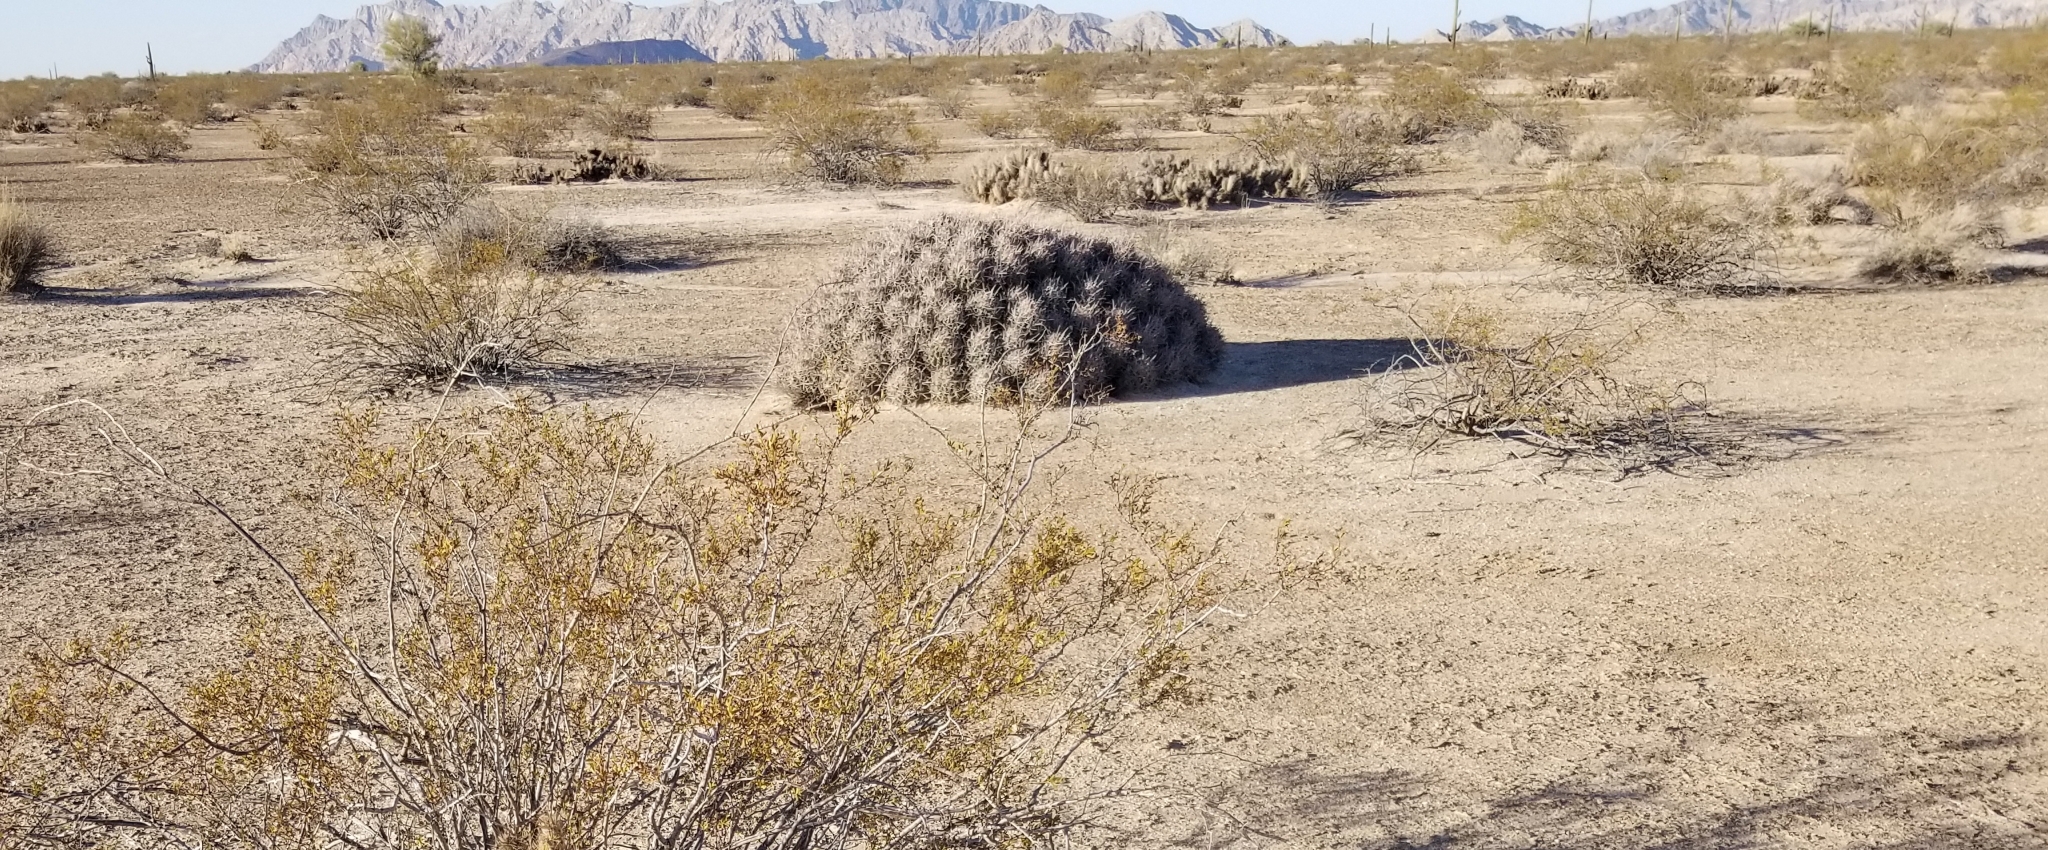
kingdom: Plantae
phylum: Tracheophyta
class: Magnoliopsida
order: Caryophyllales
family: Cactaceae
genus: Echinocactus
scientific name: Echinocactus polycephalus
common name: Cottontop cactus
